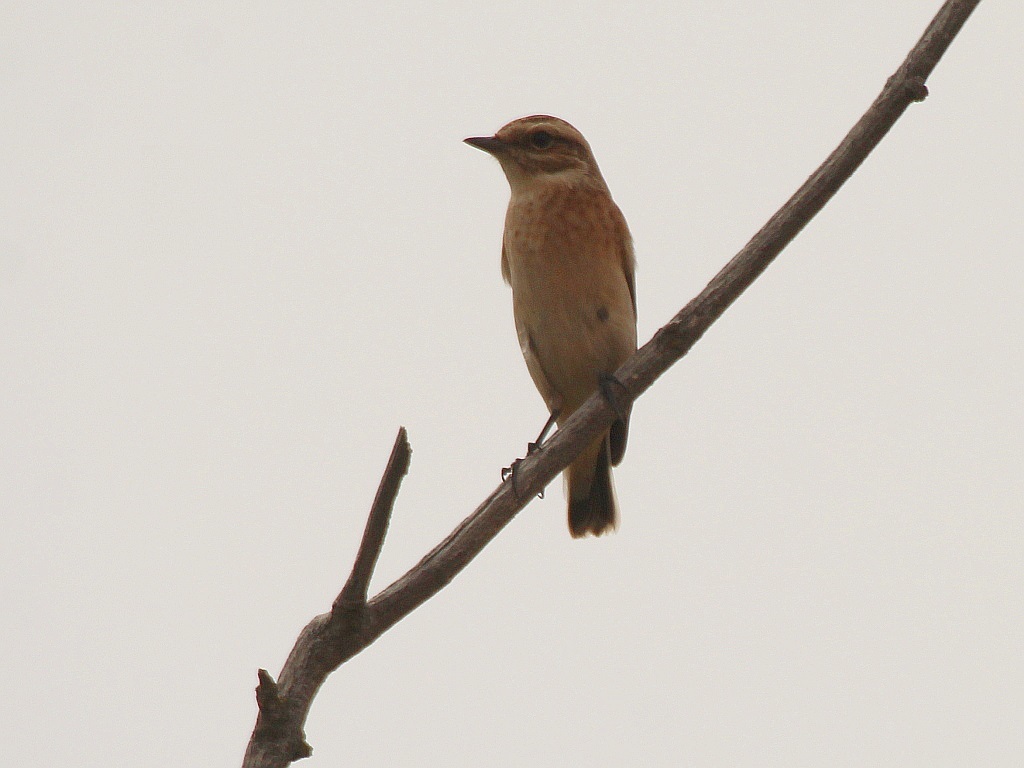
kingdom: Animalia
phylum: Chordata
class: Aves
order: Passeriformes
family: Muscicapidae
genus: Saxicola
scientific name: Saxicola rubetra
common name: Whinchat
